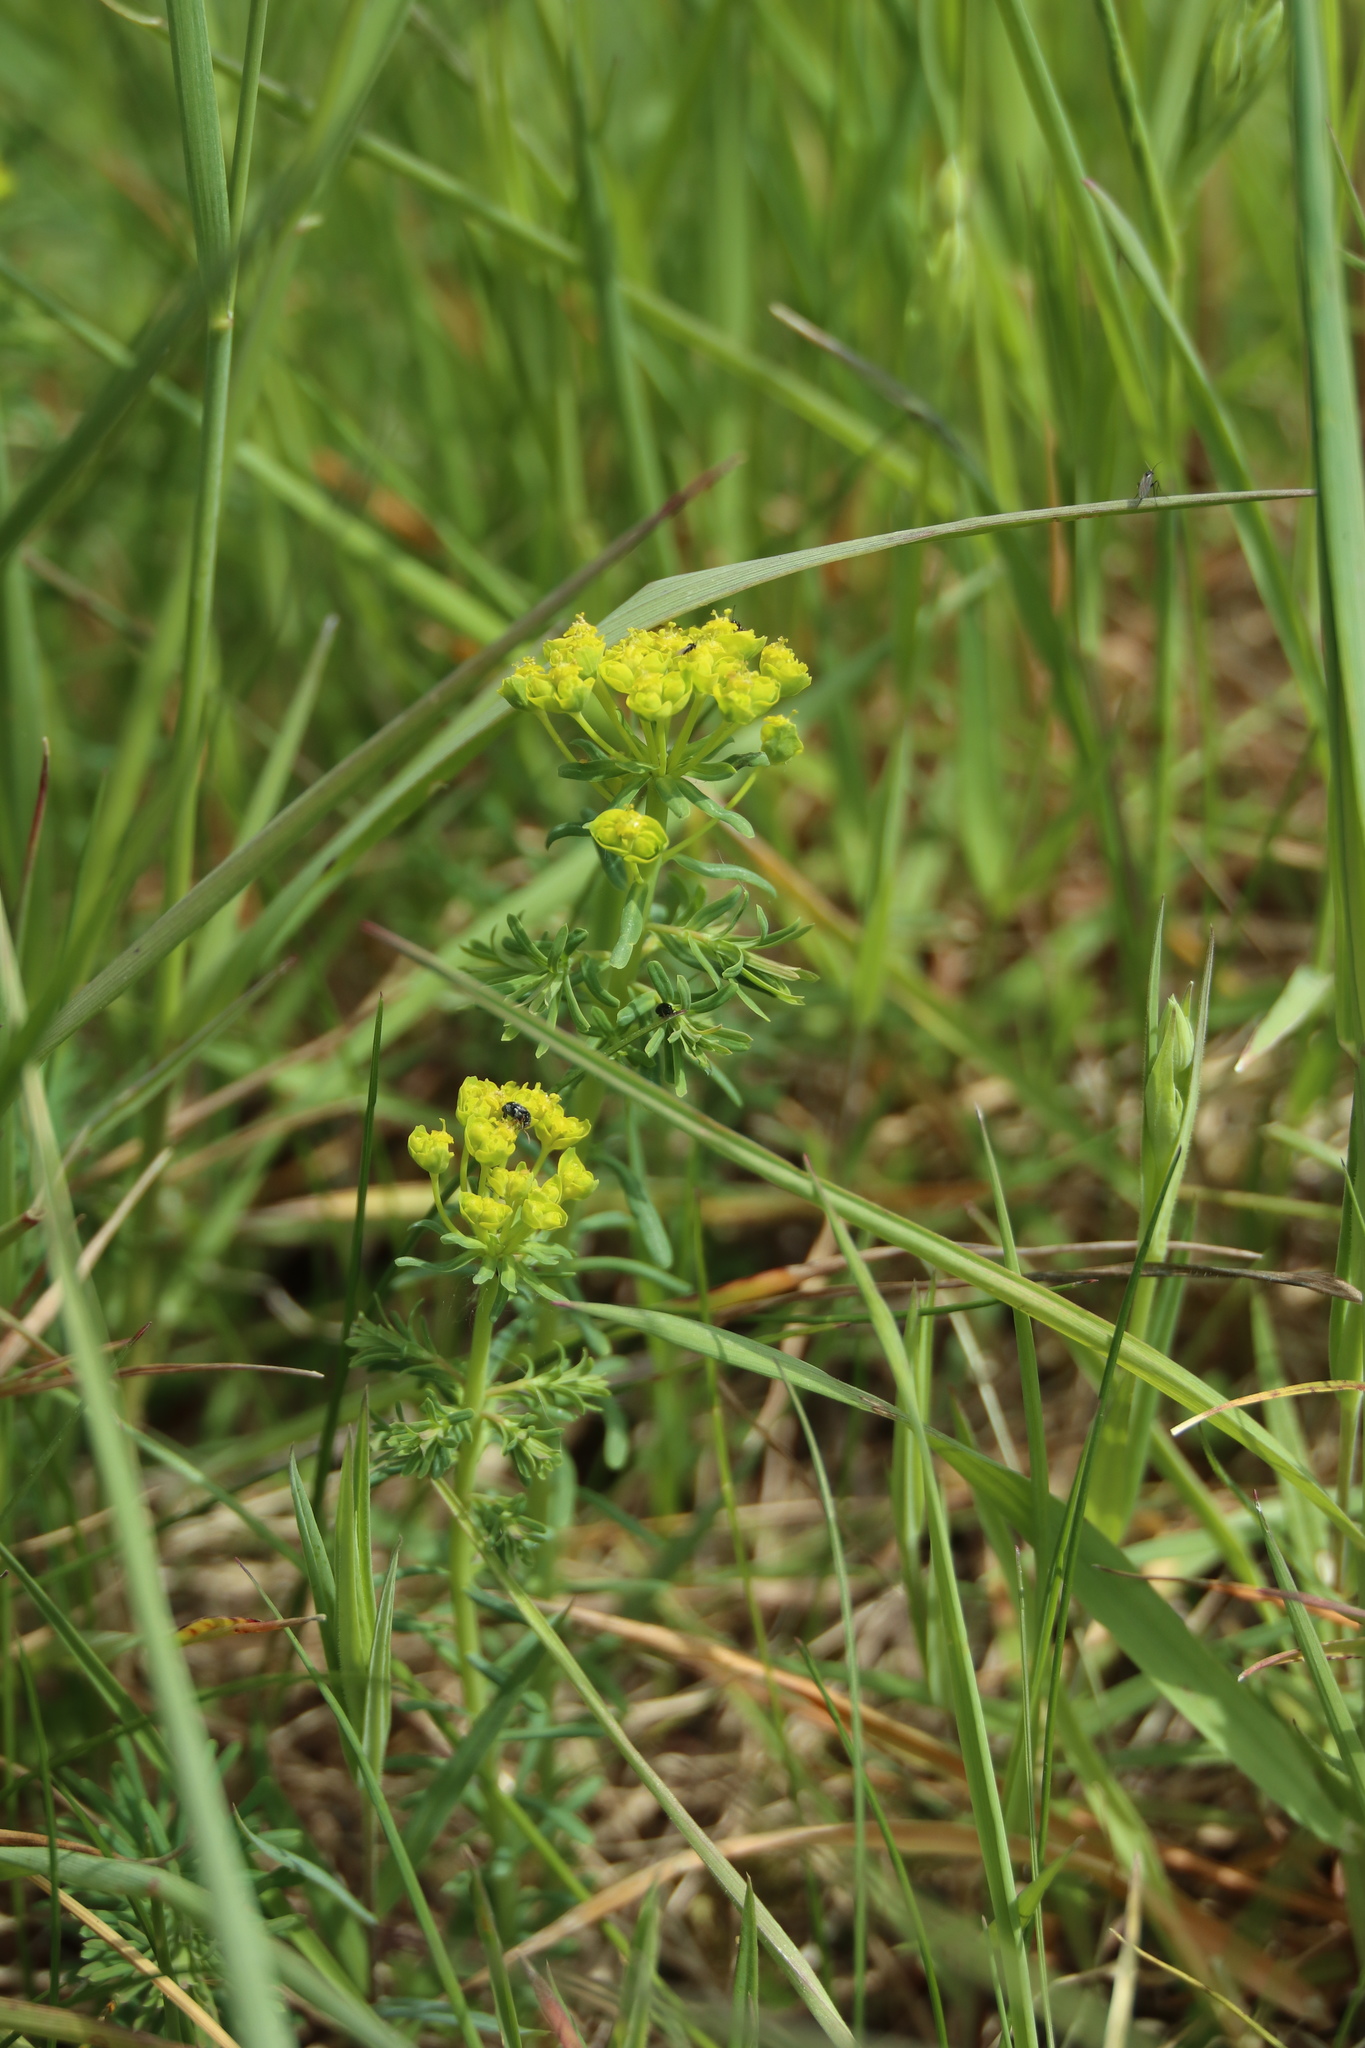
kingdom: Plantae
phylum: Tracheophyta
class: Magnoliopsida
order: Malpighiales
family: Euphorbiaceae
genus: Euphorbia
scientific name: Euphorbia cyparissias
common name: Cypress spurge
